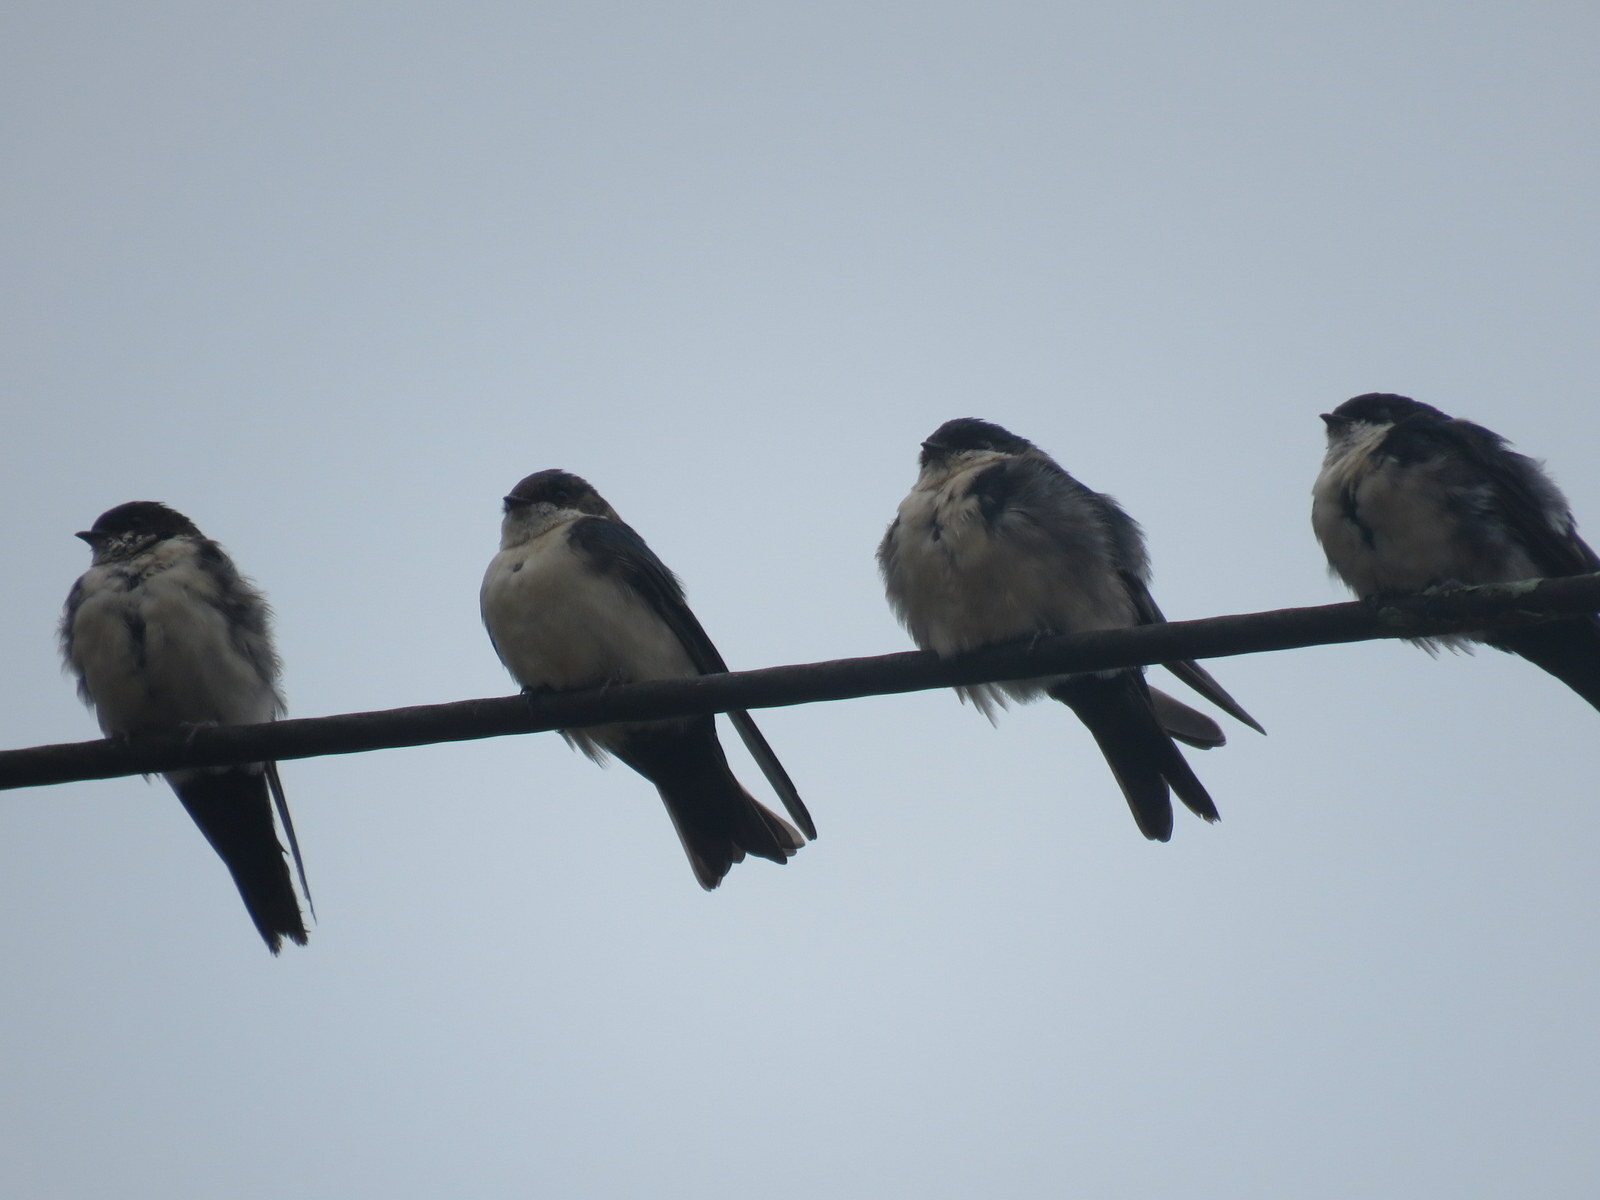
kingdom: Animalia
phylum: Chordata
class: Aves
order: Passeriformes
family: Hirundinidae
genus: Notiochelidon
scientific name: Notiochelidon cyanoleuca
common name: Blue-and-white swallow
